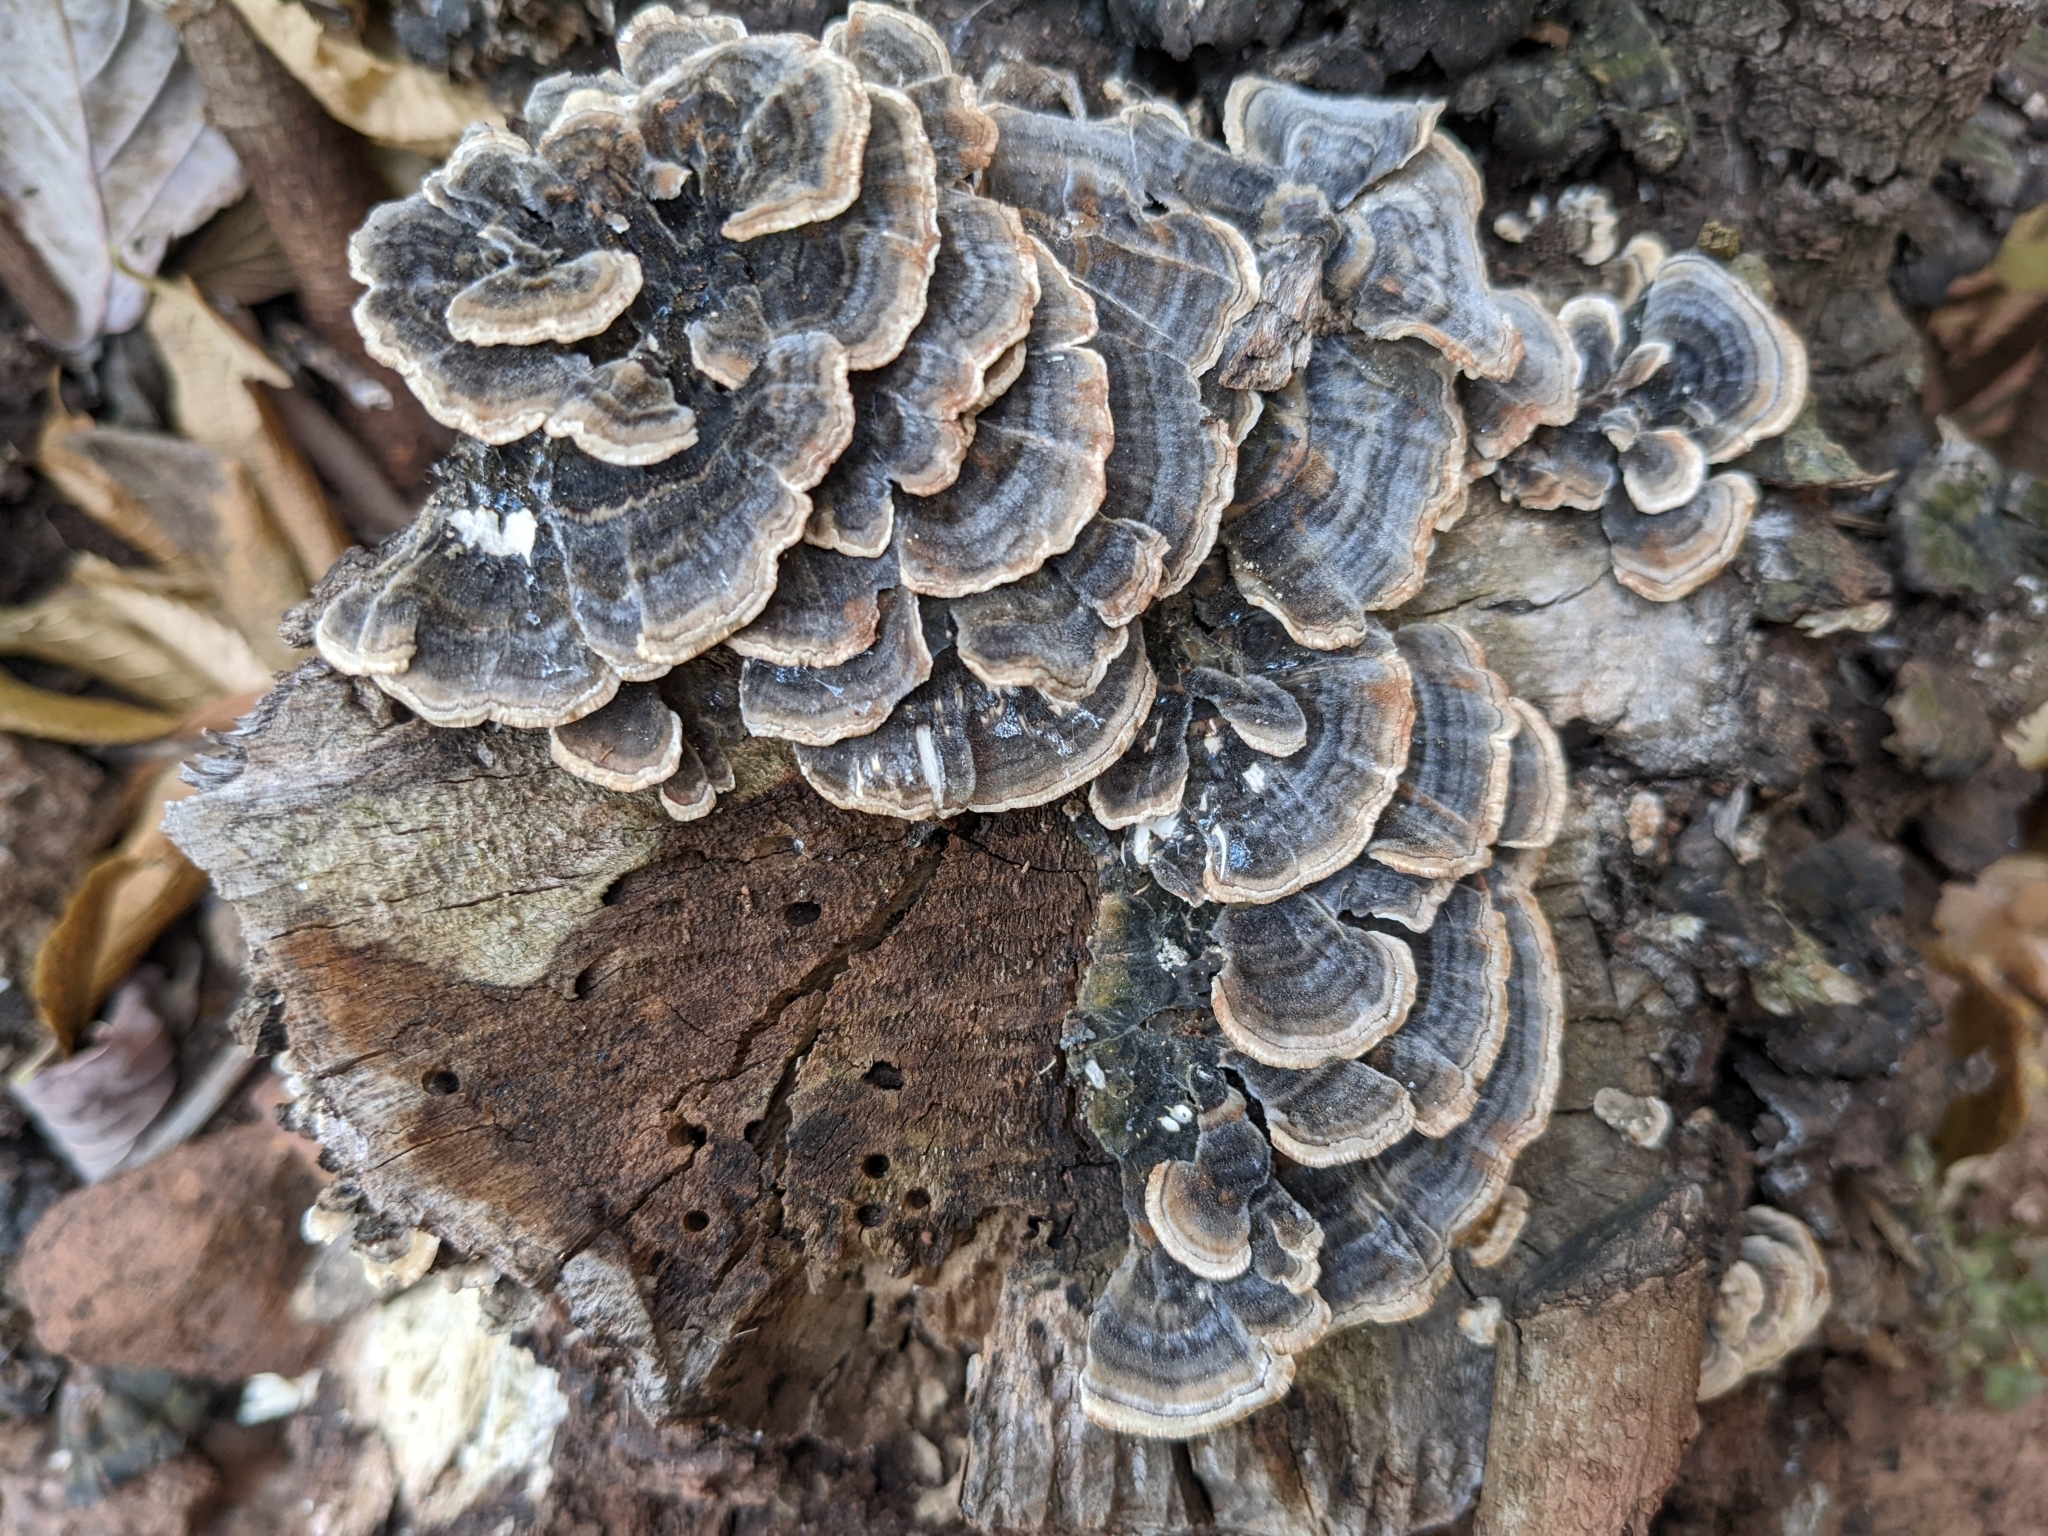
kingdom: Fungi
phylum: Basidiomycota
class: Agaricomycetes
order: Polyporales
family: Polyporaceae
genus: Trametes
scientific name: Trametes versicolor
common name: Turkeytail
